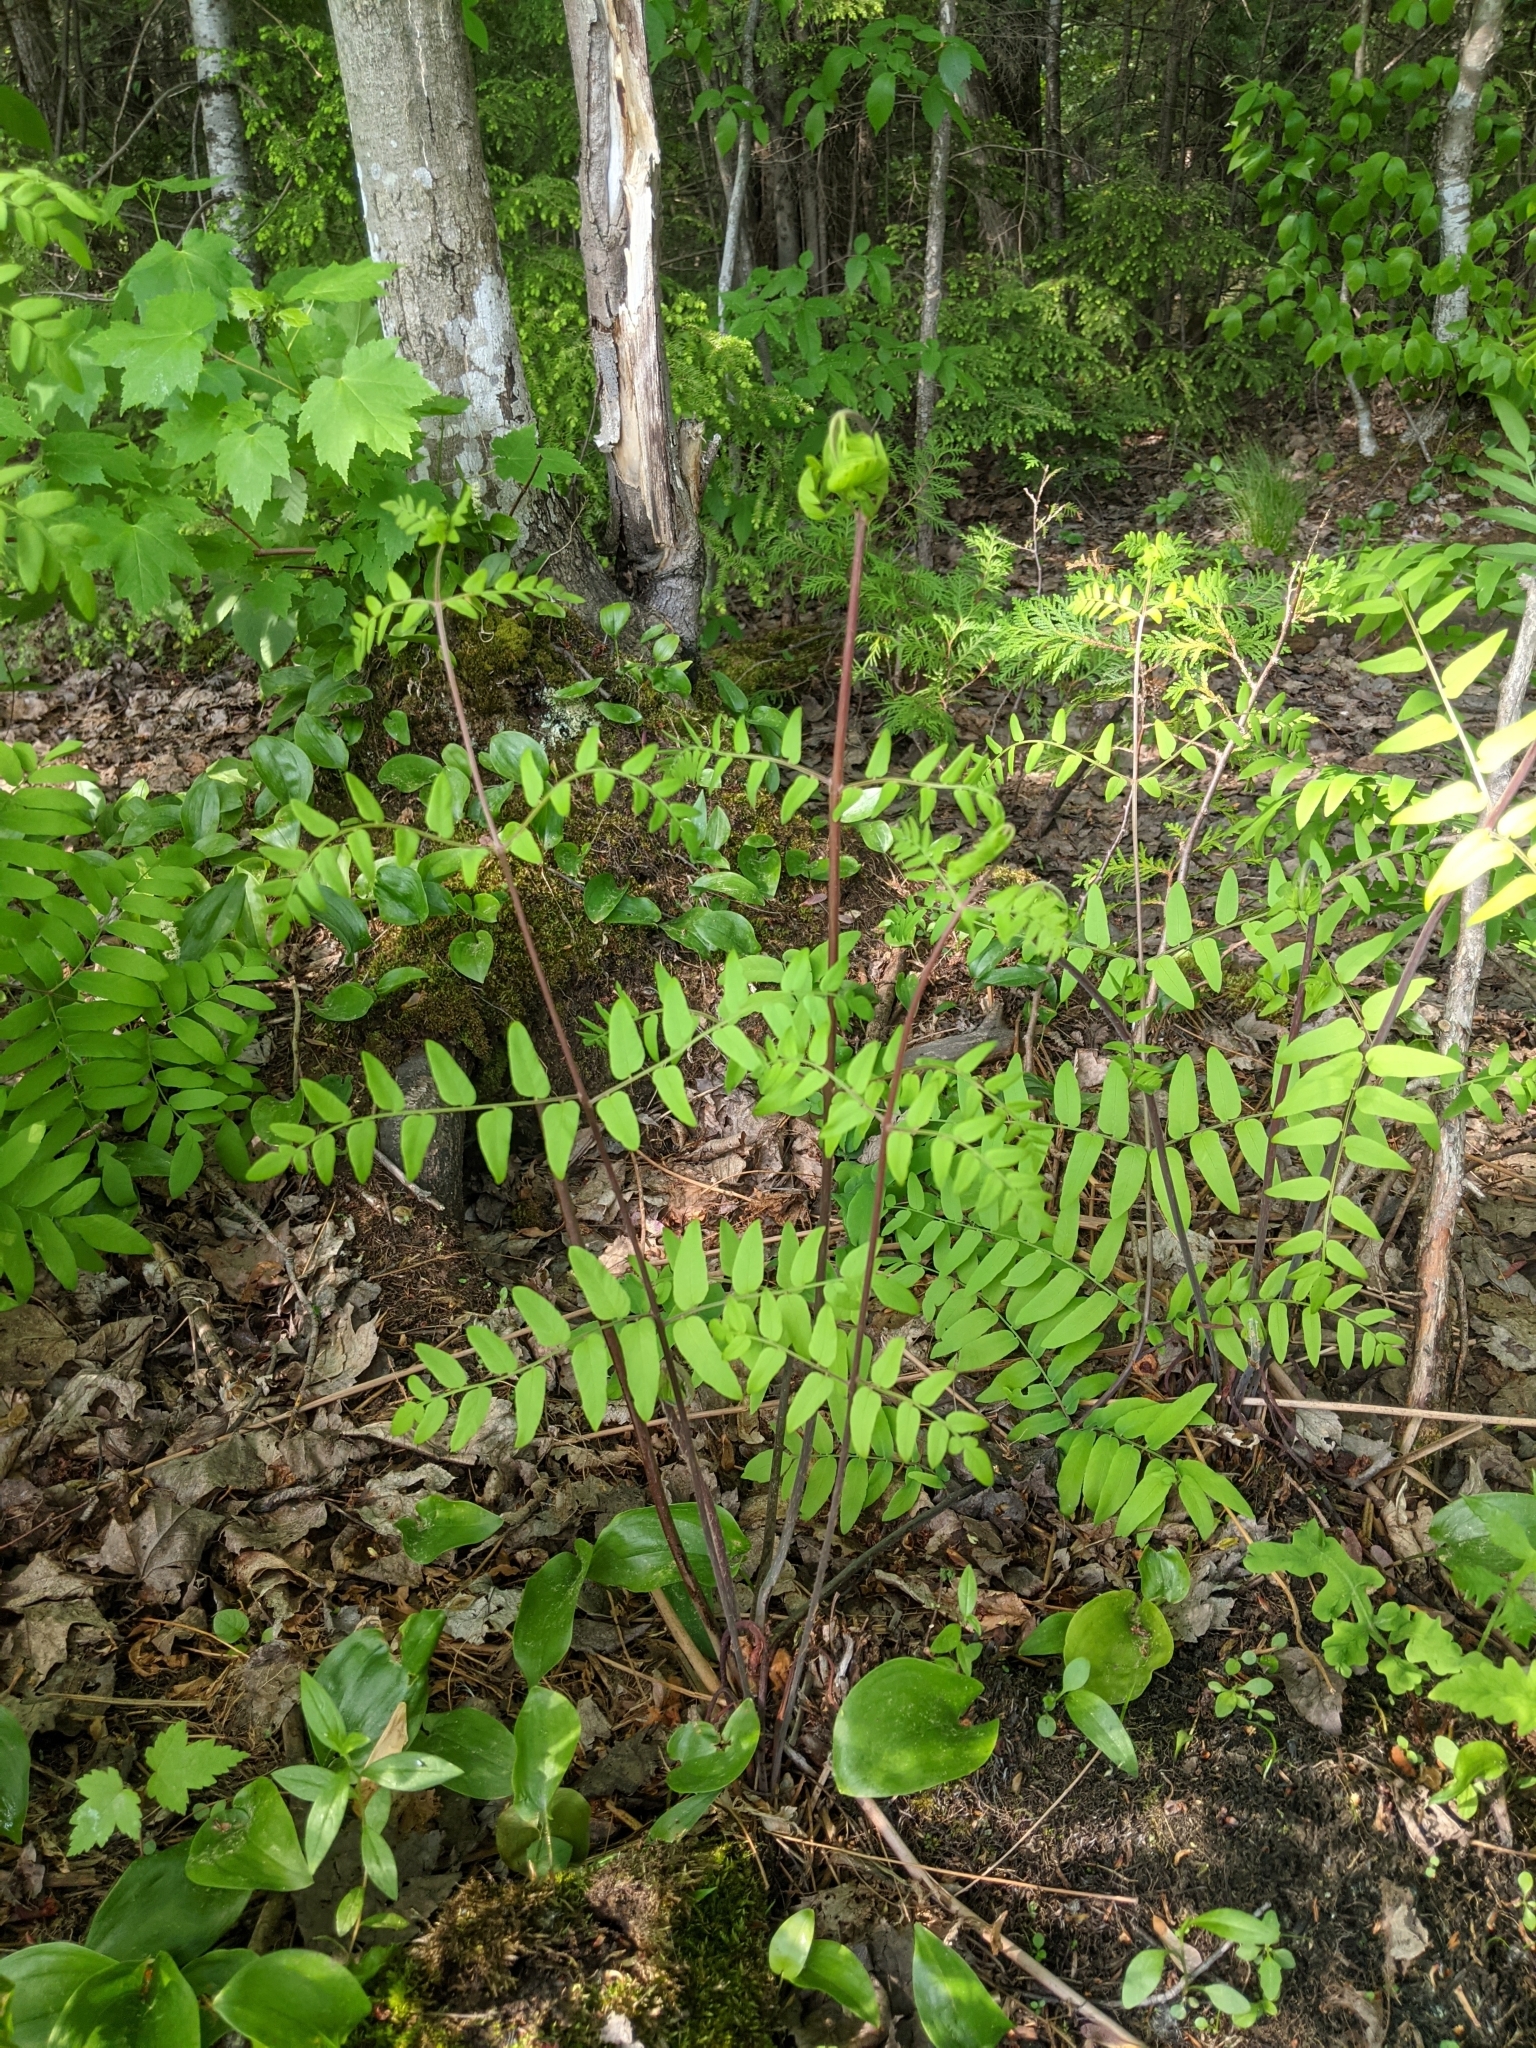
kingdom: Plantae
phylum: Tracheophyta
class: Polypodiopsida
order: Osmundales
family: Osmundaceae
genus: Osmunda
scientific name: Osmunda spectabilis
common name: American royal fern
